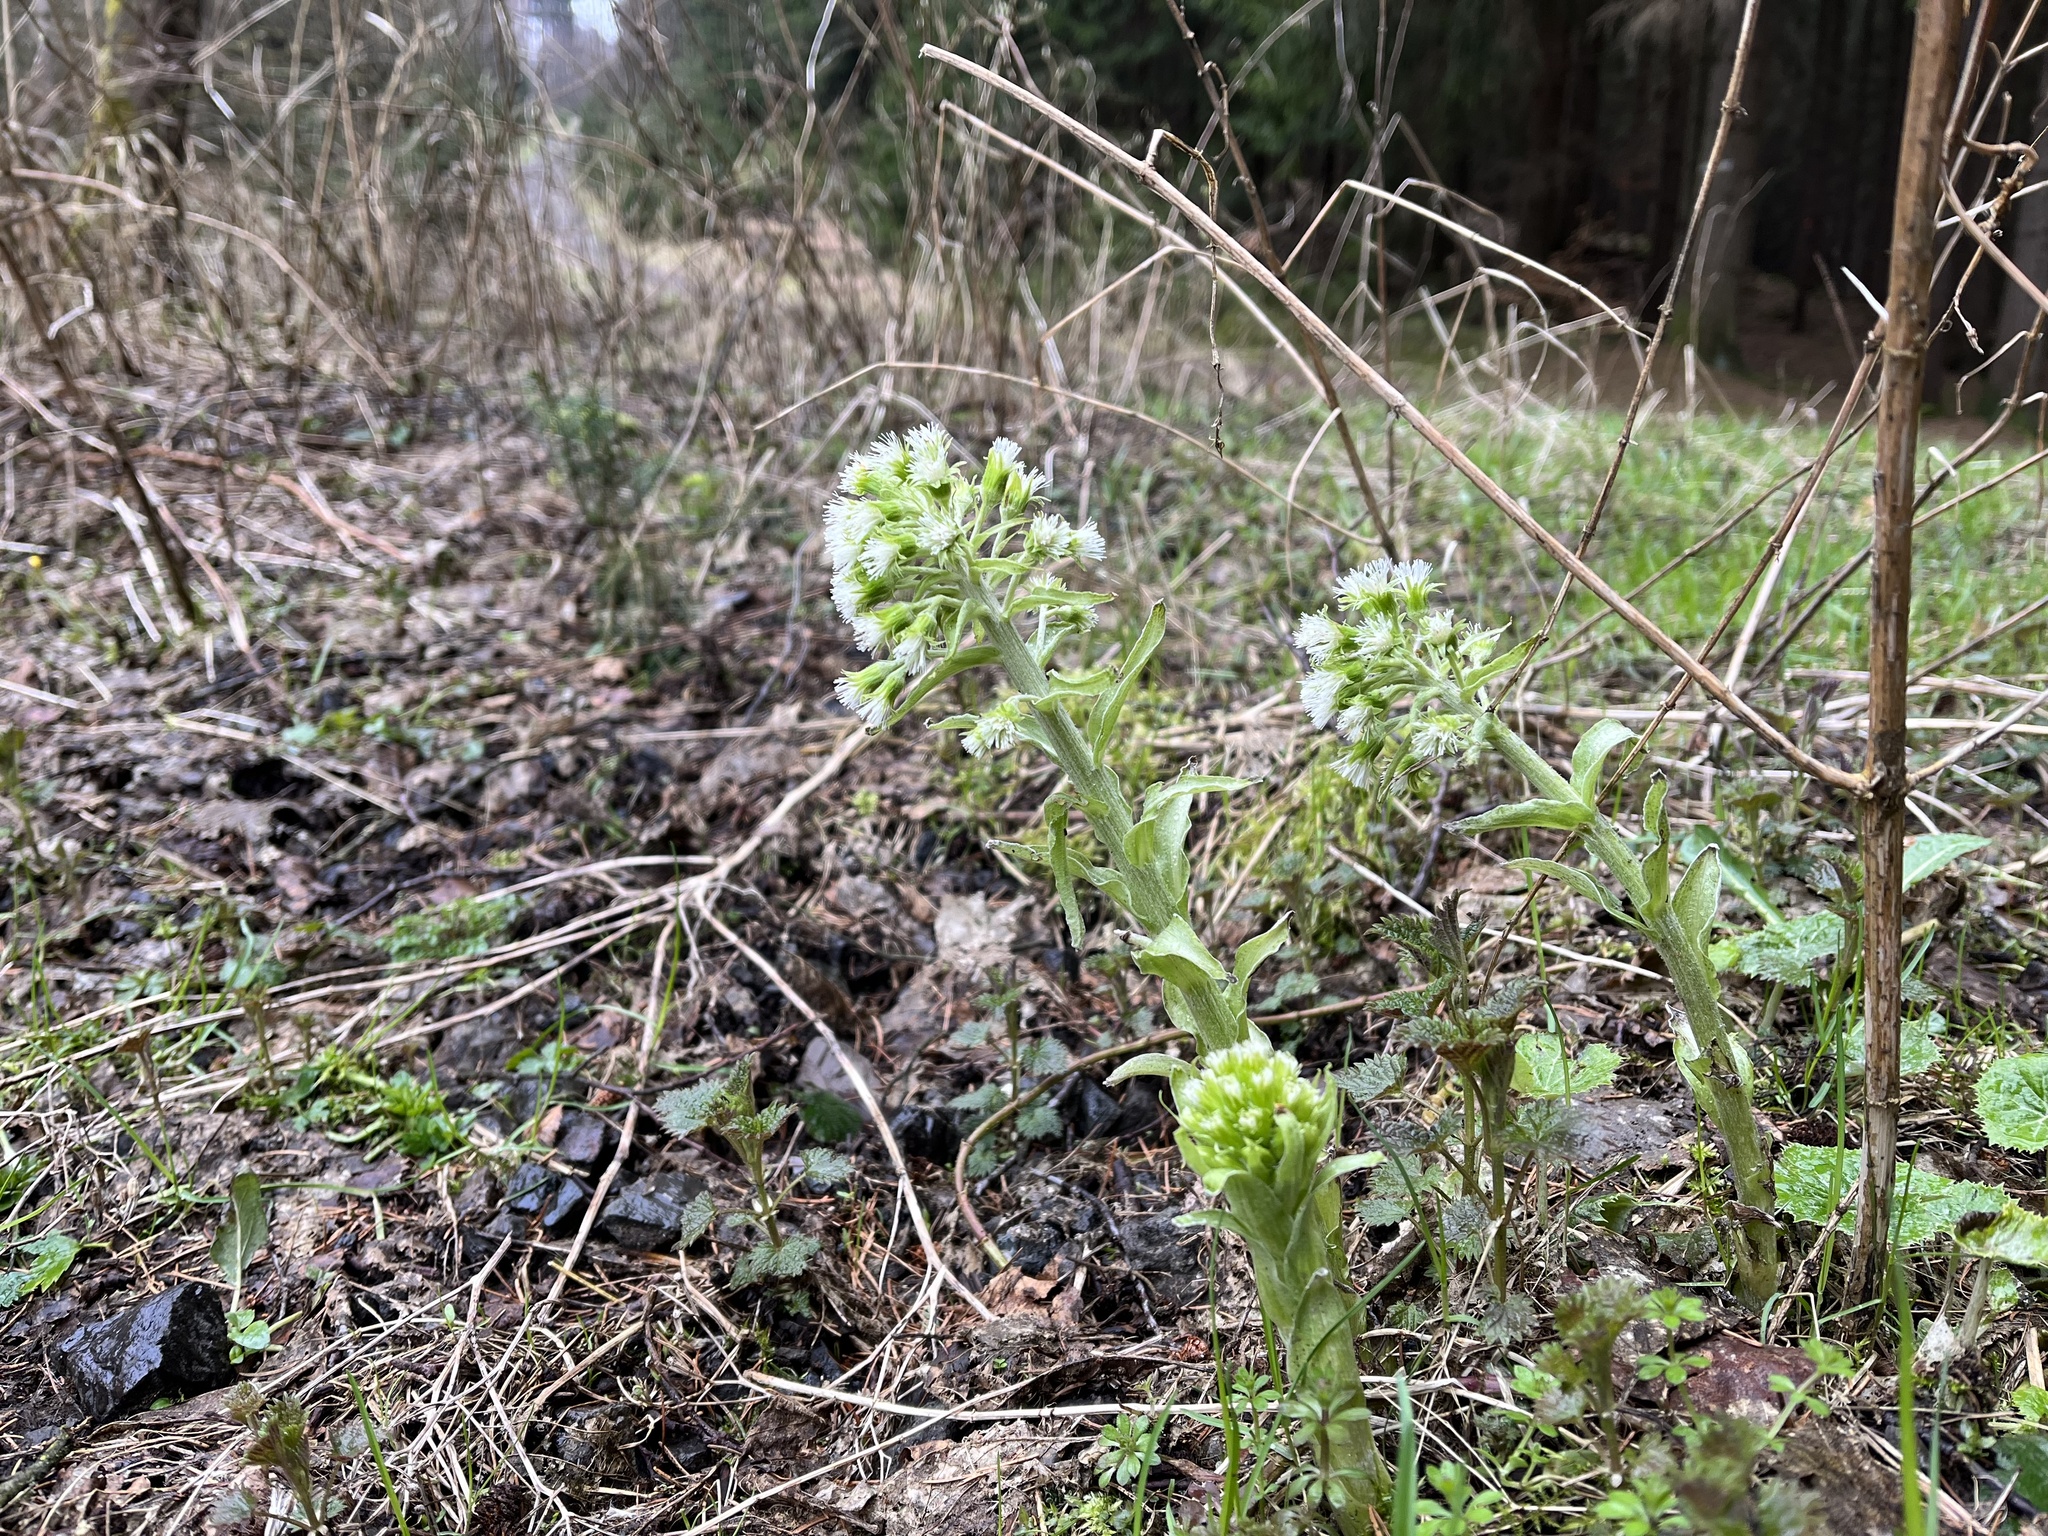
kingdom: Plantae
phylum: Tracheophyta
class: Magnoliopsida
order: Asterales
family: Asteraceae
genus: Petasites
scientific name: Petasites albus
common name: White butterbur
